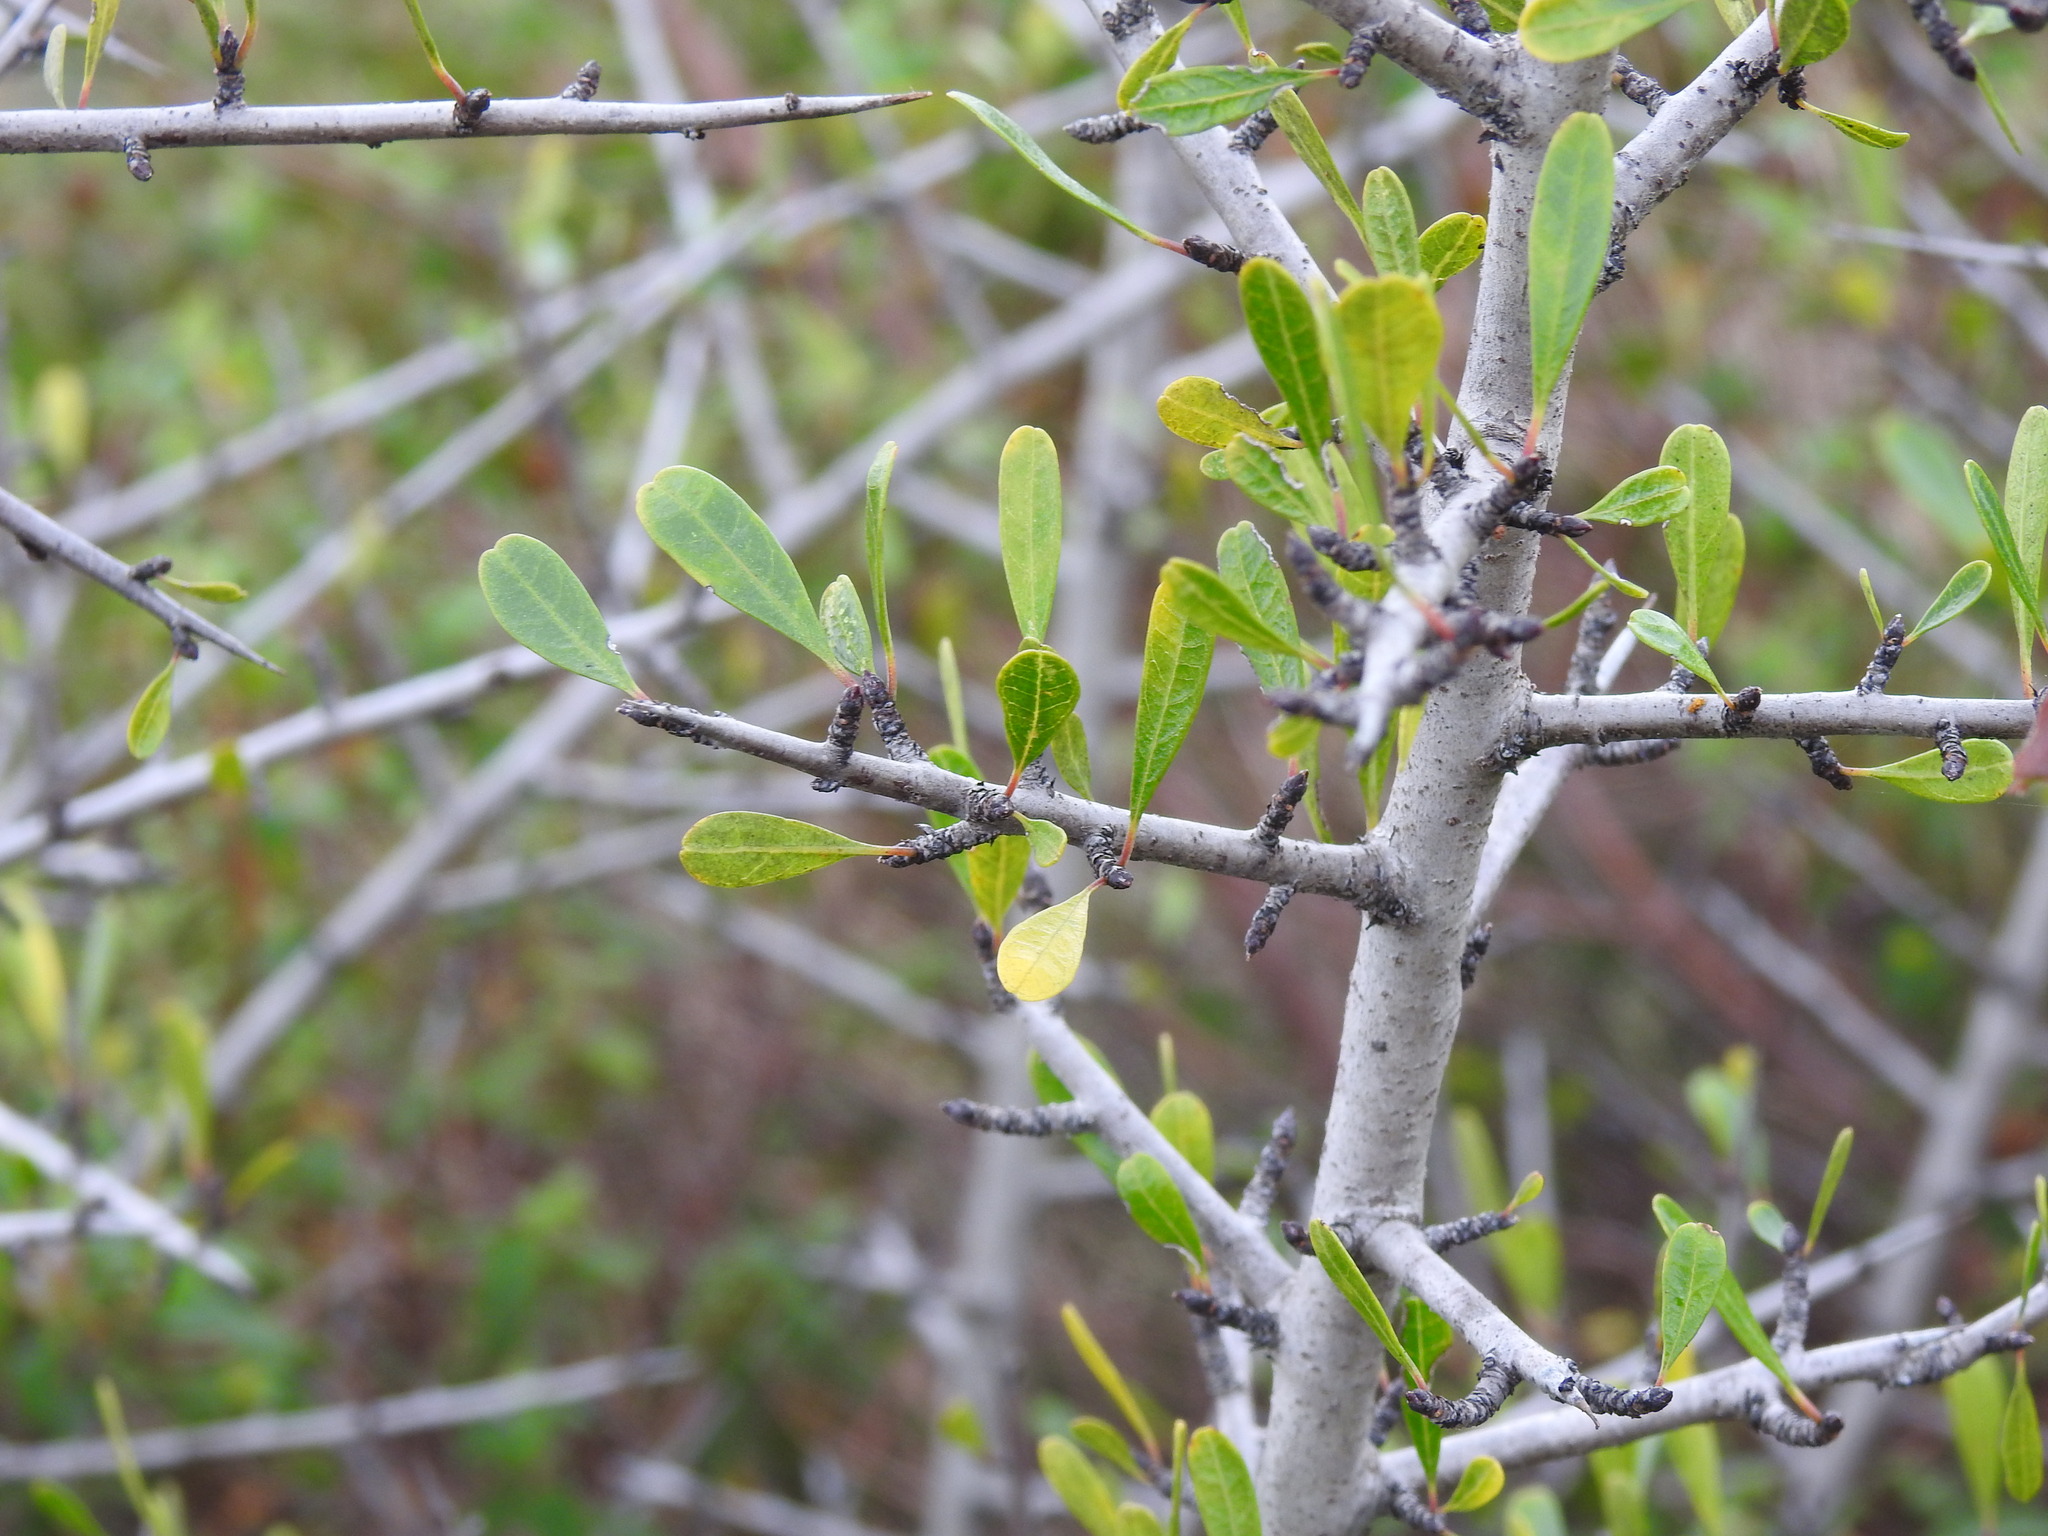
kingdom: Plantae
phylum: Tracheophyta
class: Magnoliopsida
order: Rosales
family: Rhamnaceae
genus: Rhamnus
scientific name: Rhamnus oleoides
